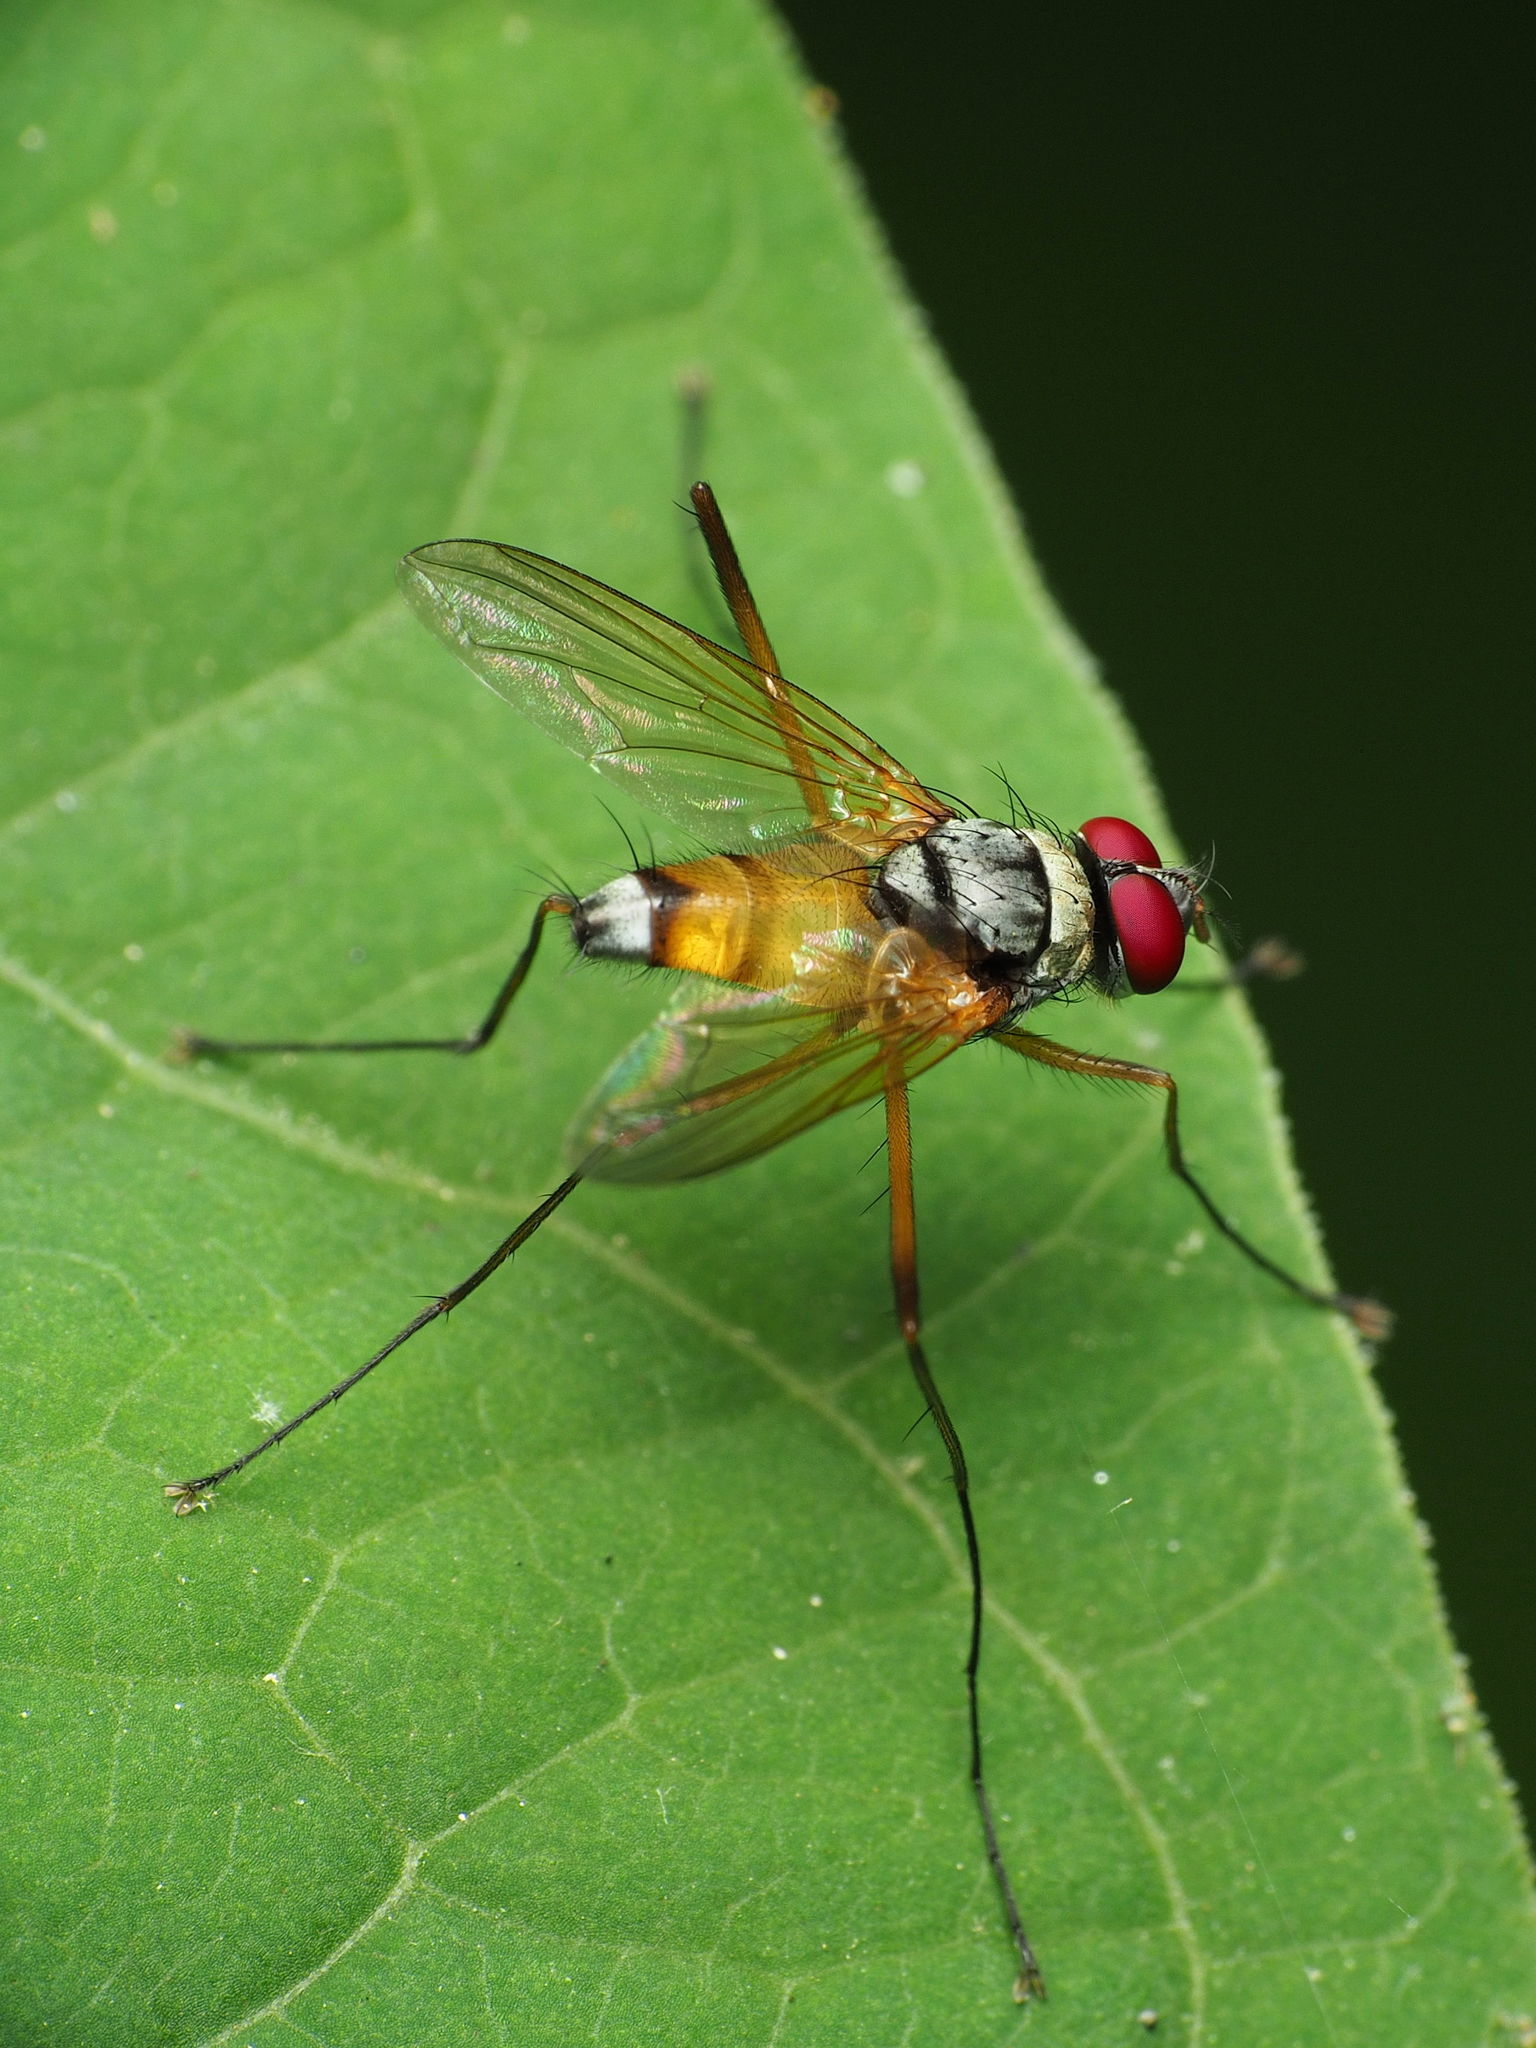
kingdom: Animalia
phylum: Arthropoda
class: Insecta
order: Diptera
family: Tachinidae
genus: Cholomyia
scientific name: Cholomyia inaequipes
